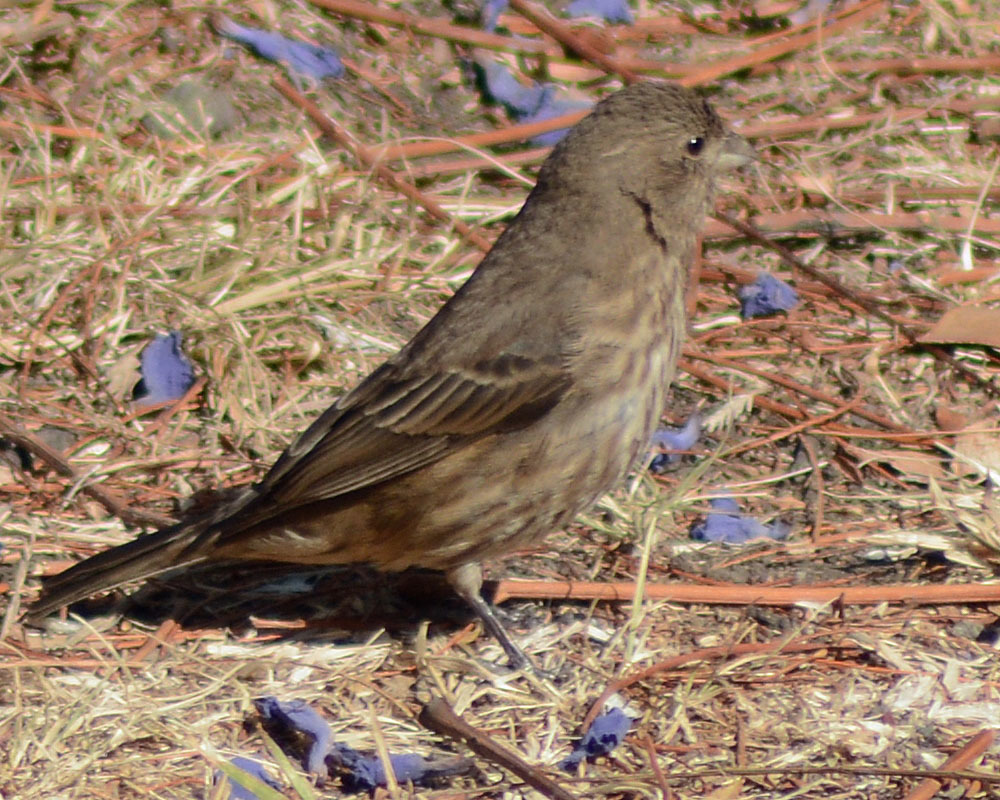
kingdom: Animalia
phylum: Chordata
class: Aves
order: Passeriformes
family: Fringillidae
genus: Haemorhous
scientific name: Haemorhous mexicanus
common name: House finch
